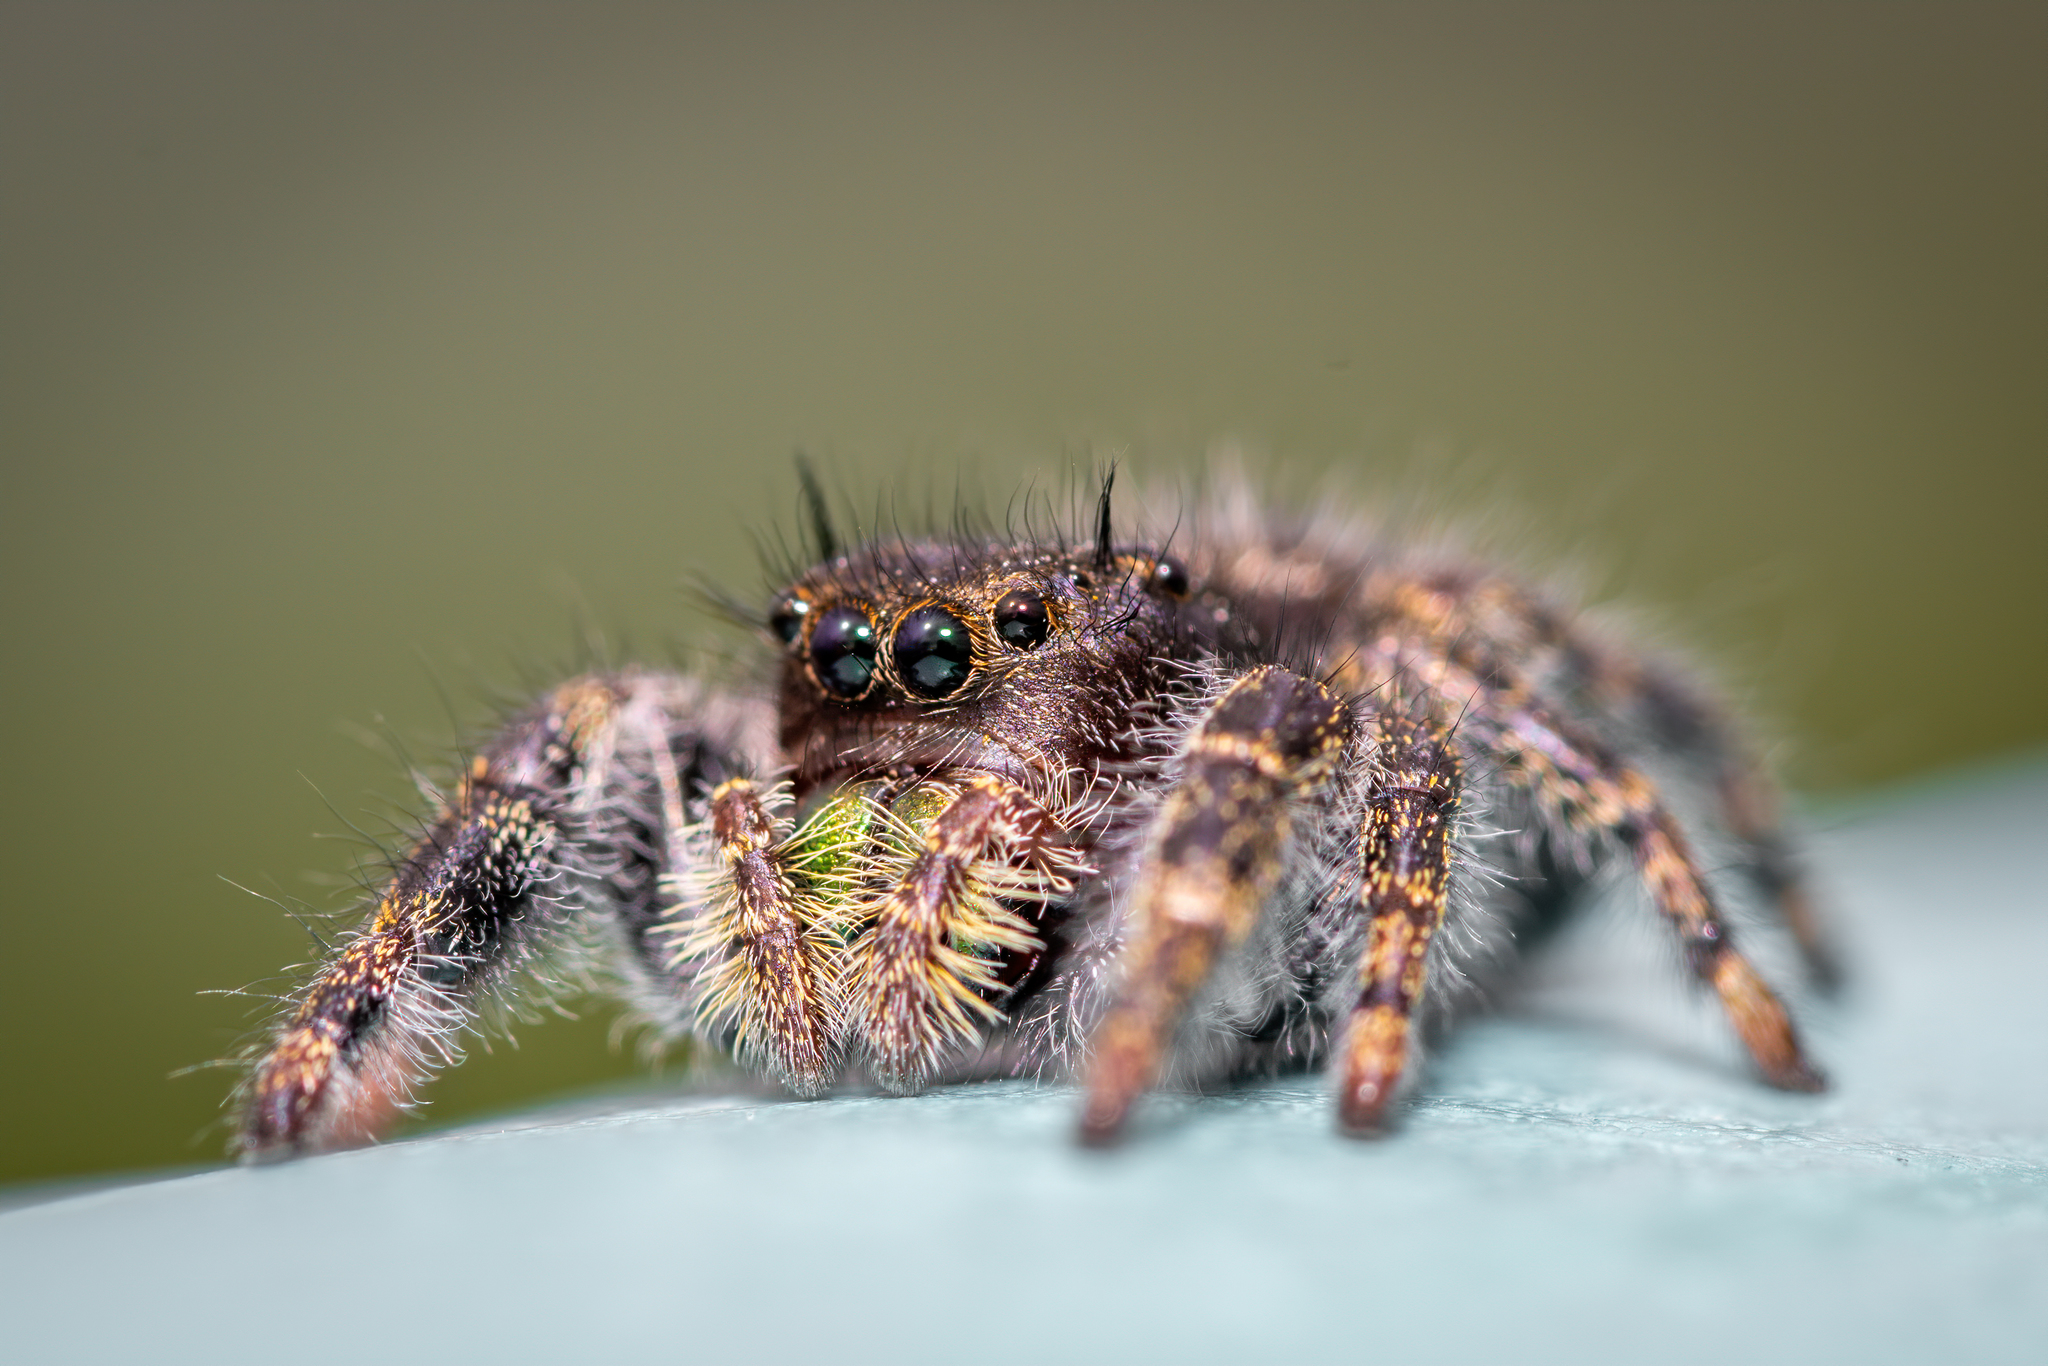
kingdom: Animalia
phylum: Arthropoda
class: Arachnida
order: Araneae
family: Salticidae
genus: Phidippus
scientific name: Phidippus audax
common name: Bold jumper
